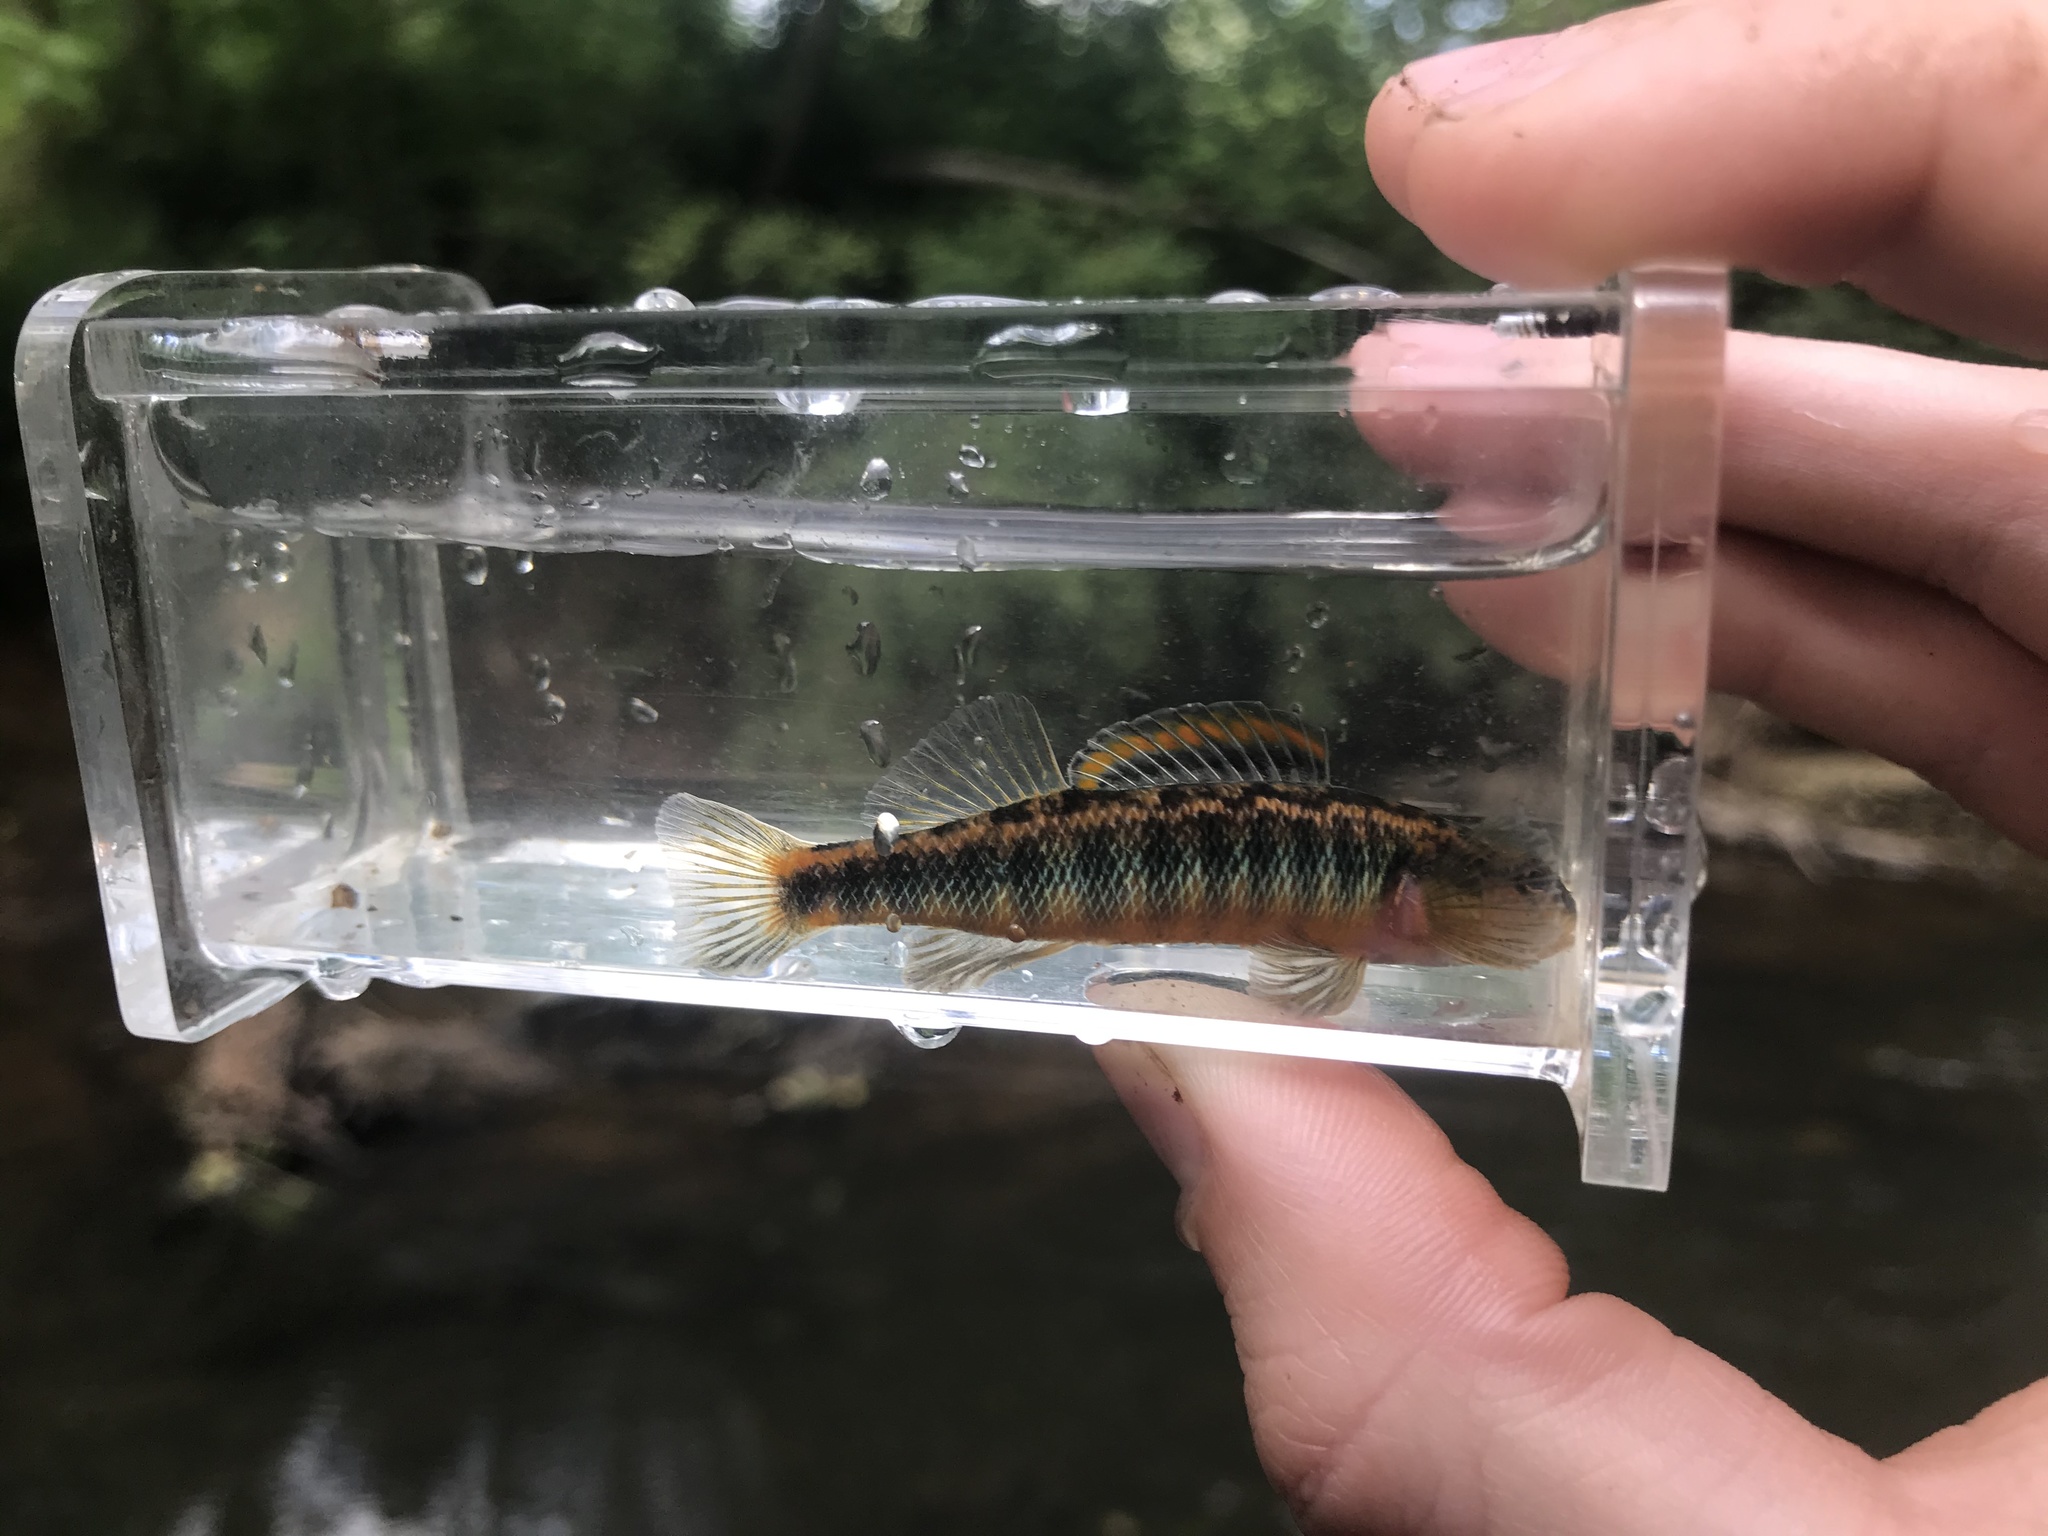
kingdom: Animalia
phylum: Chordata
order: Perciformes
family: Percidae
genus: Percina
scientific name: Percina roanoka
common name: Roanoke darter
